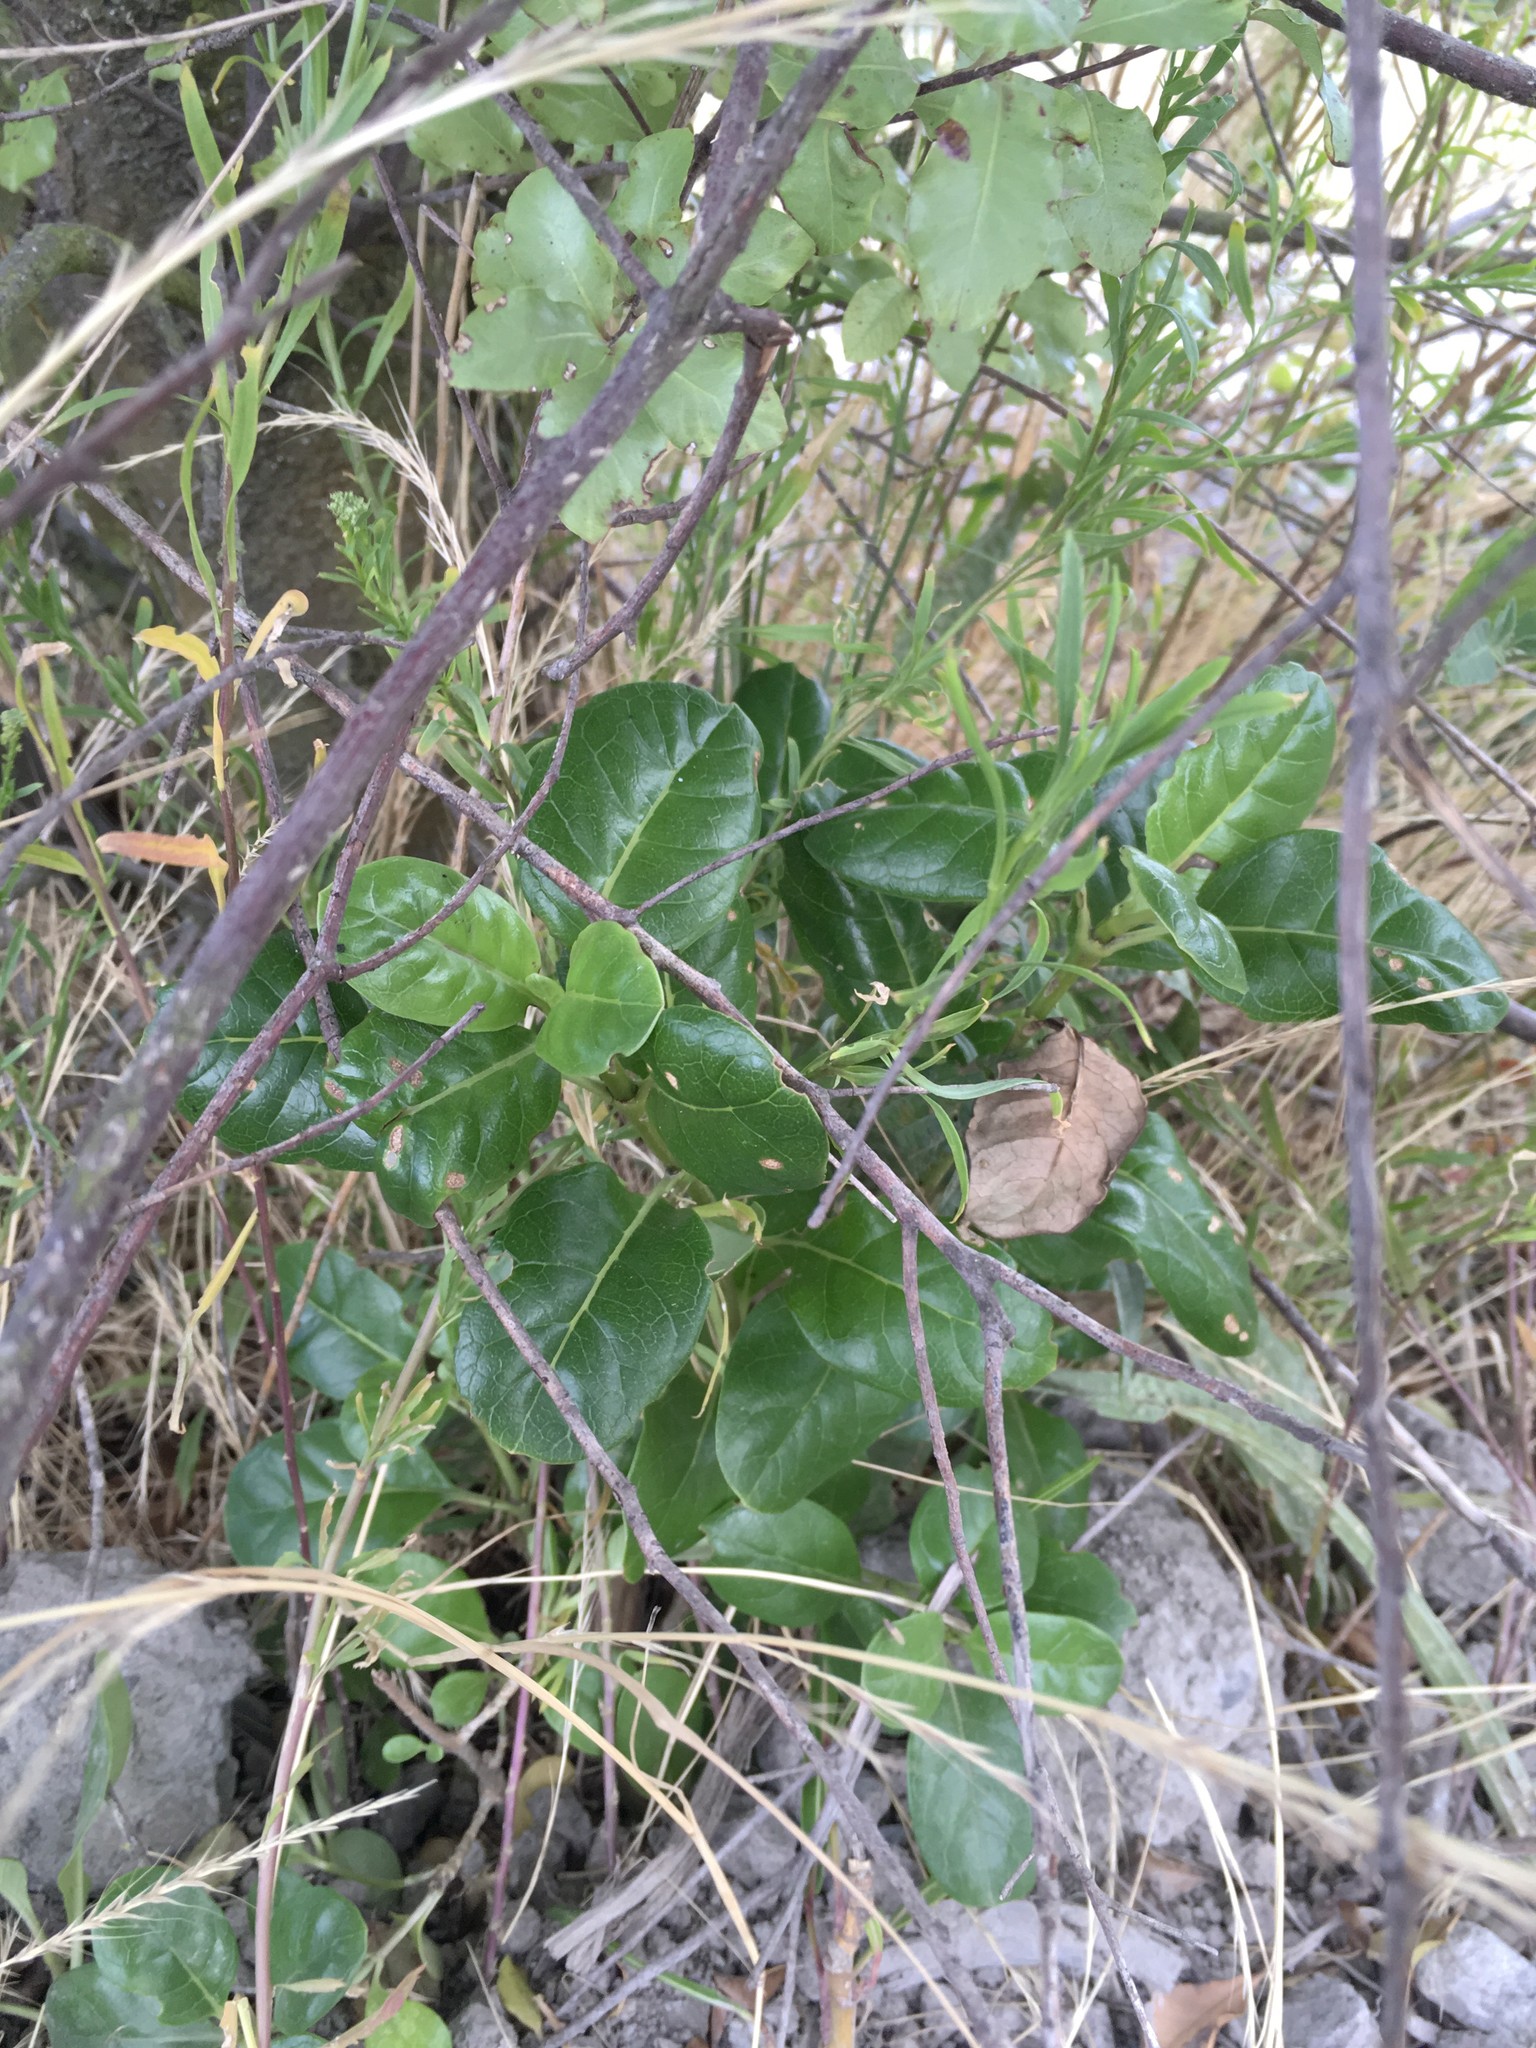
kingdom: Plantae
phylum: Tracheophyta
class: Magnoliopsida
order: Gentianales
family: Rubiaceae
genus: Coprosma
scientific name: Coprosma repens
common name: Tree bedstraw
